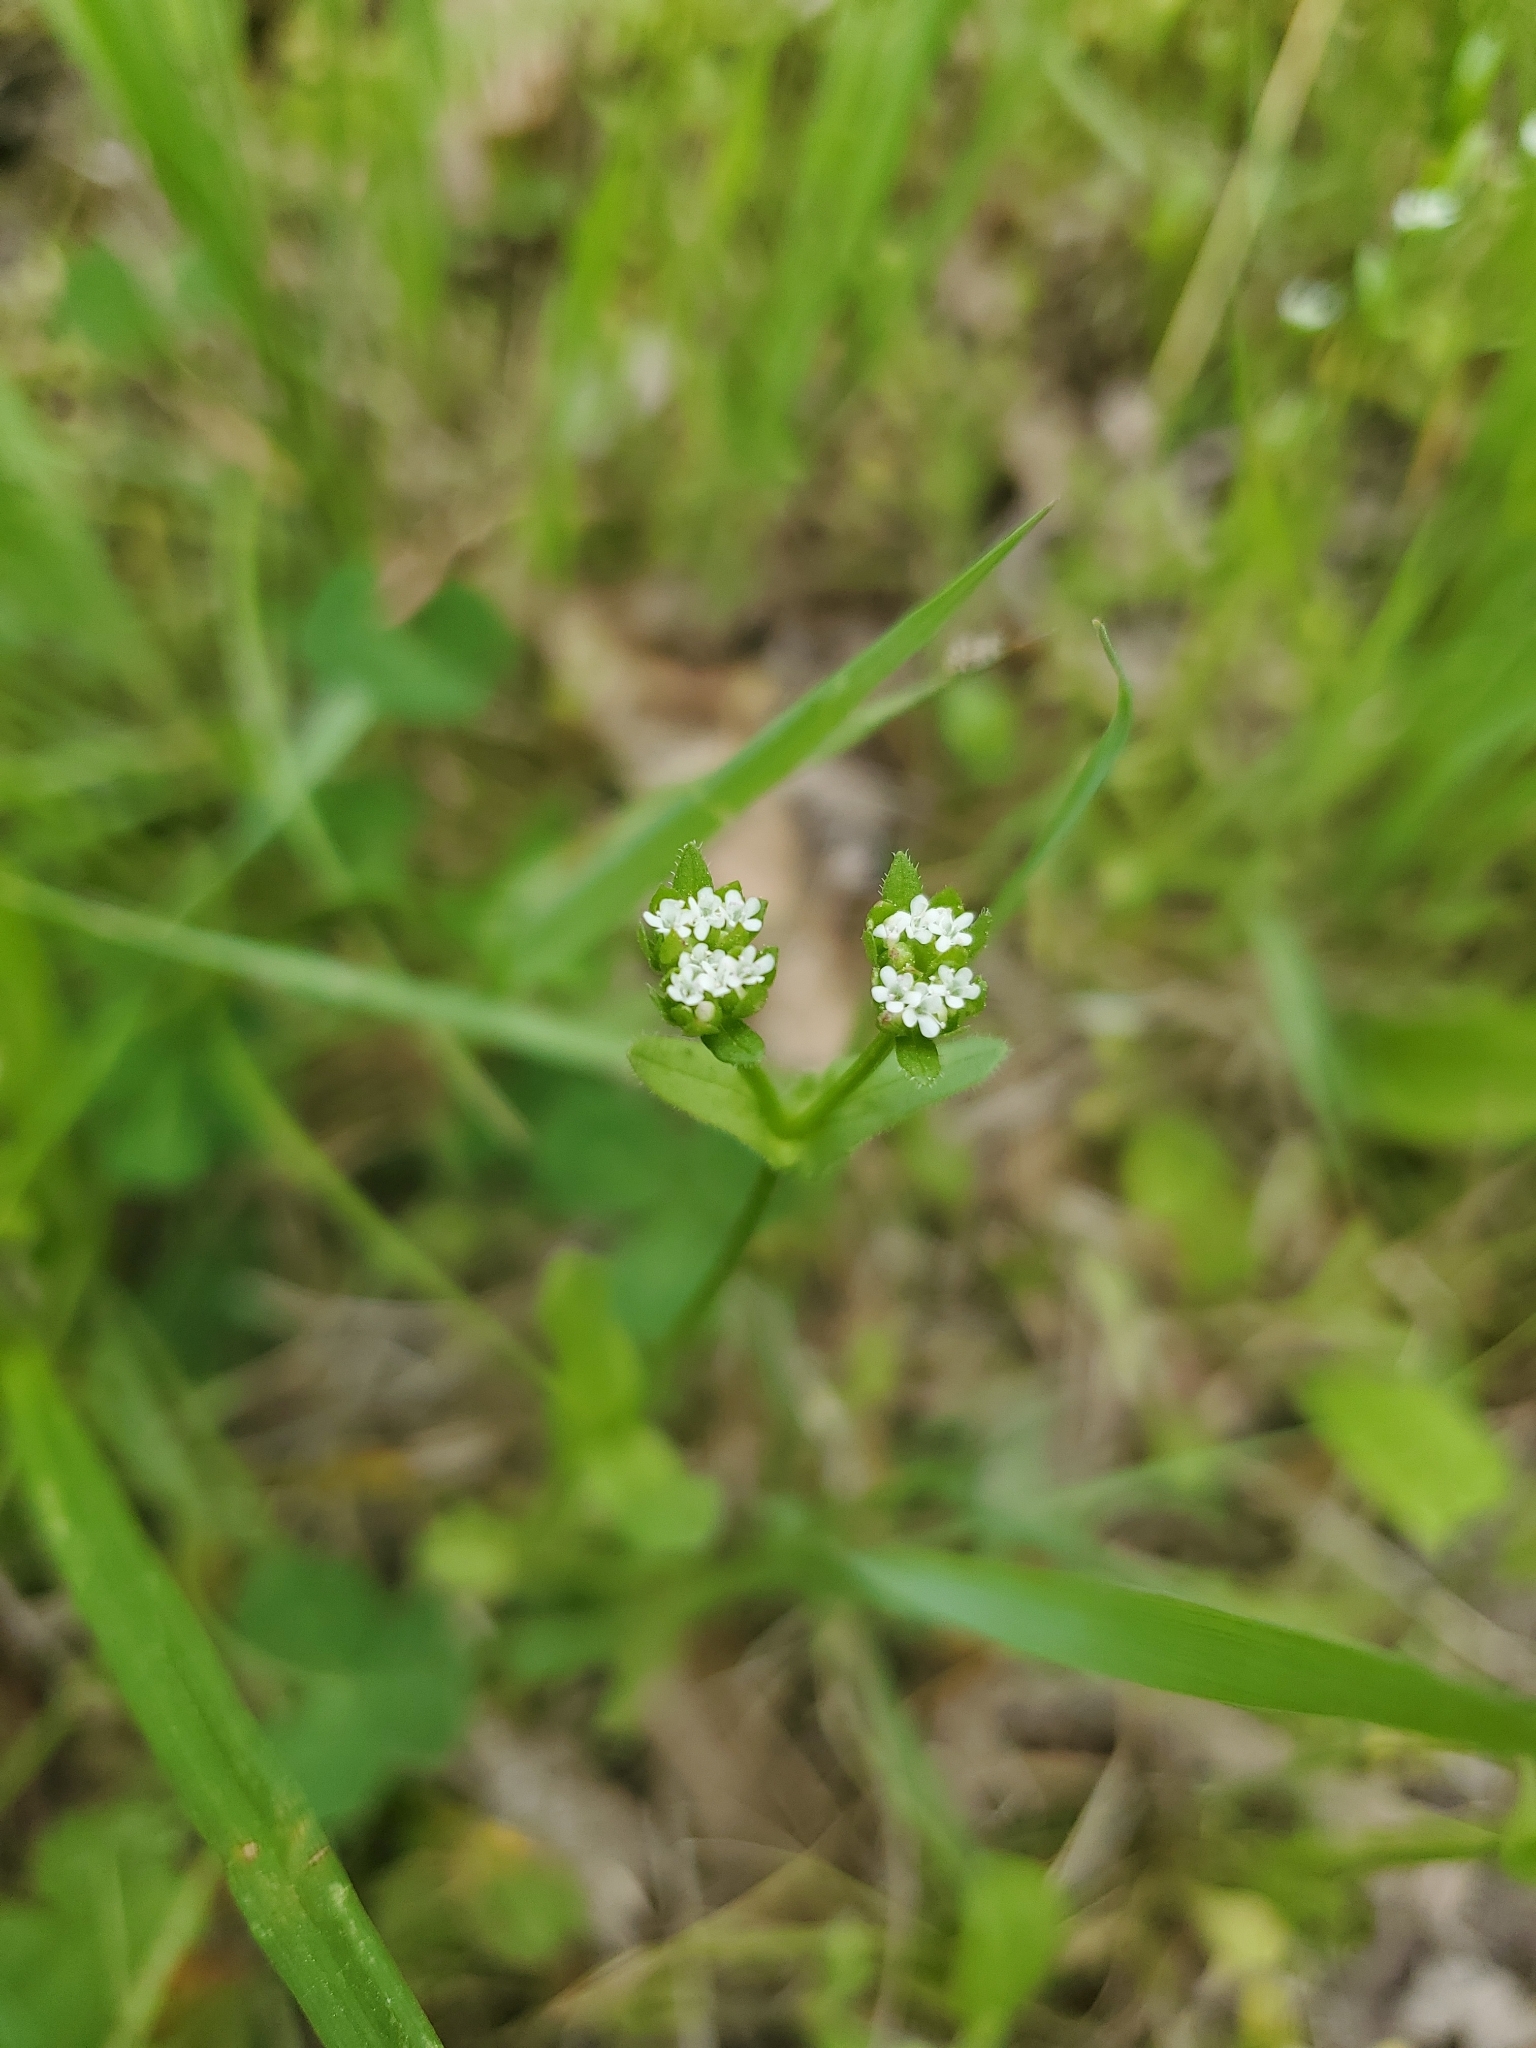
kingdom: Plantae
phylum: Tracheophyta
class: Magnoliopsida
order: Dipsacales
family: Caprifoliaceae
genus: Valerianella
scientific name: Valerianella radiata
